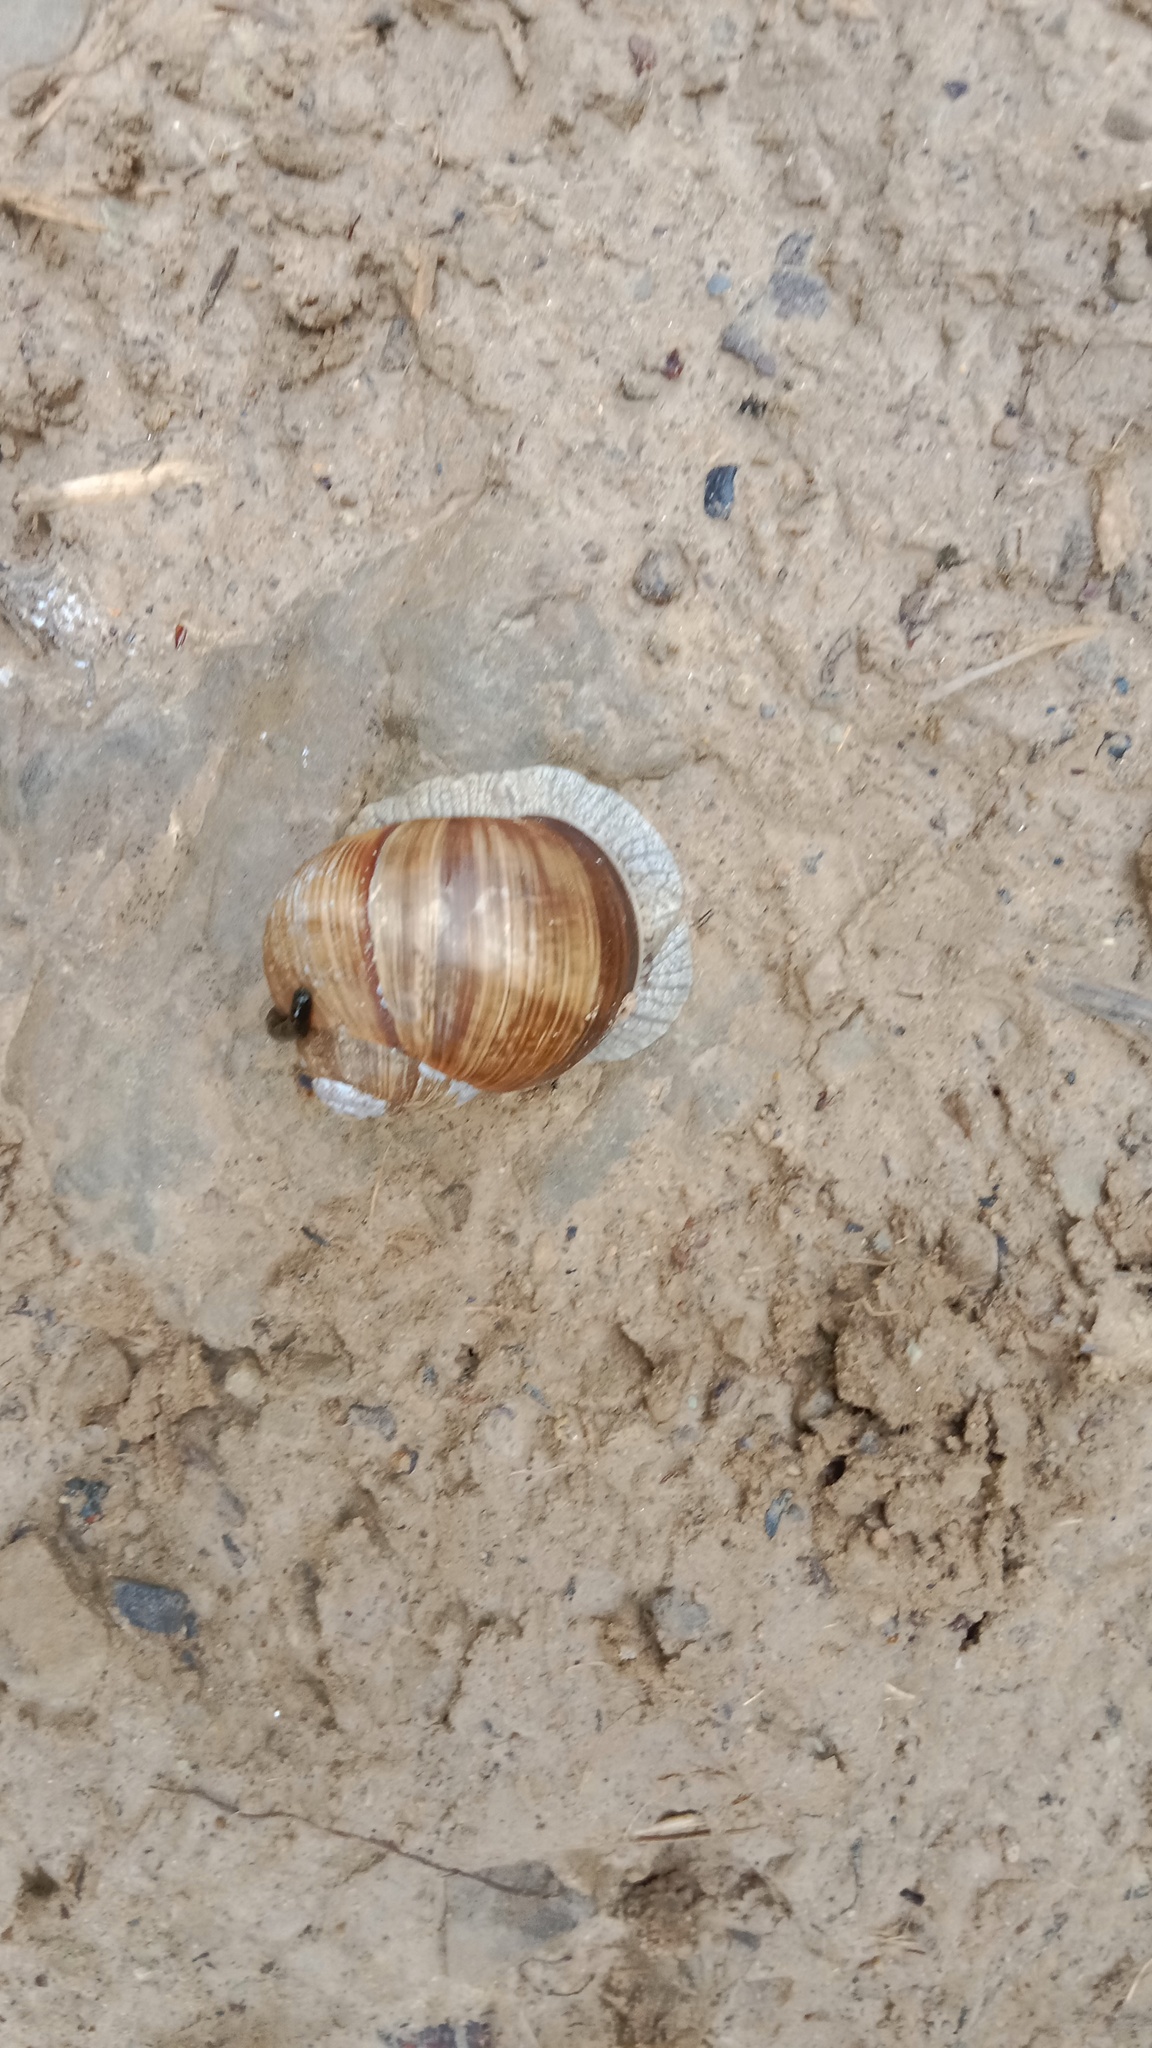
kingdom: Animalia
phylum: Mollusca
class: Gastropoda
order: Stylommatophora
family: Helicidae
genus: Helix
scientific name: Helix pomatia
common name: Roman snail
